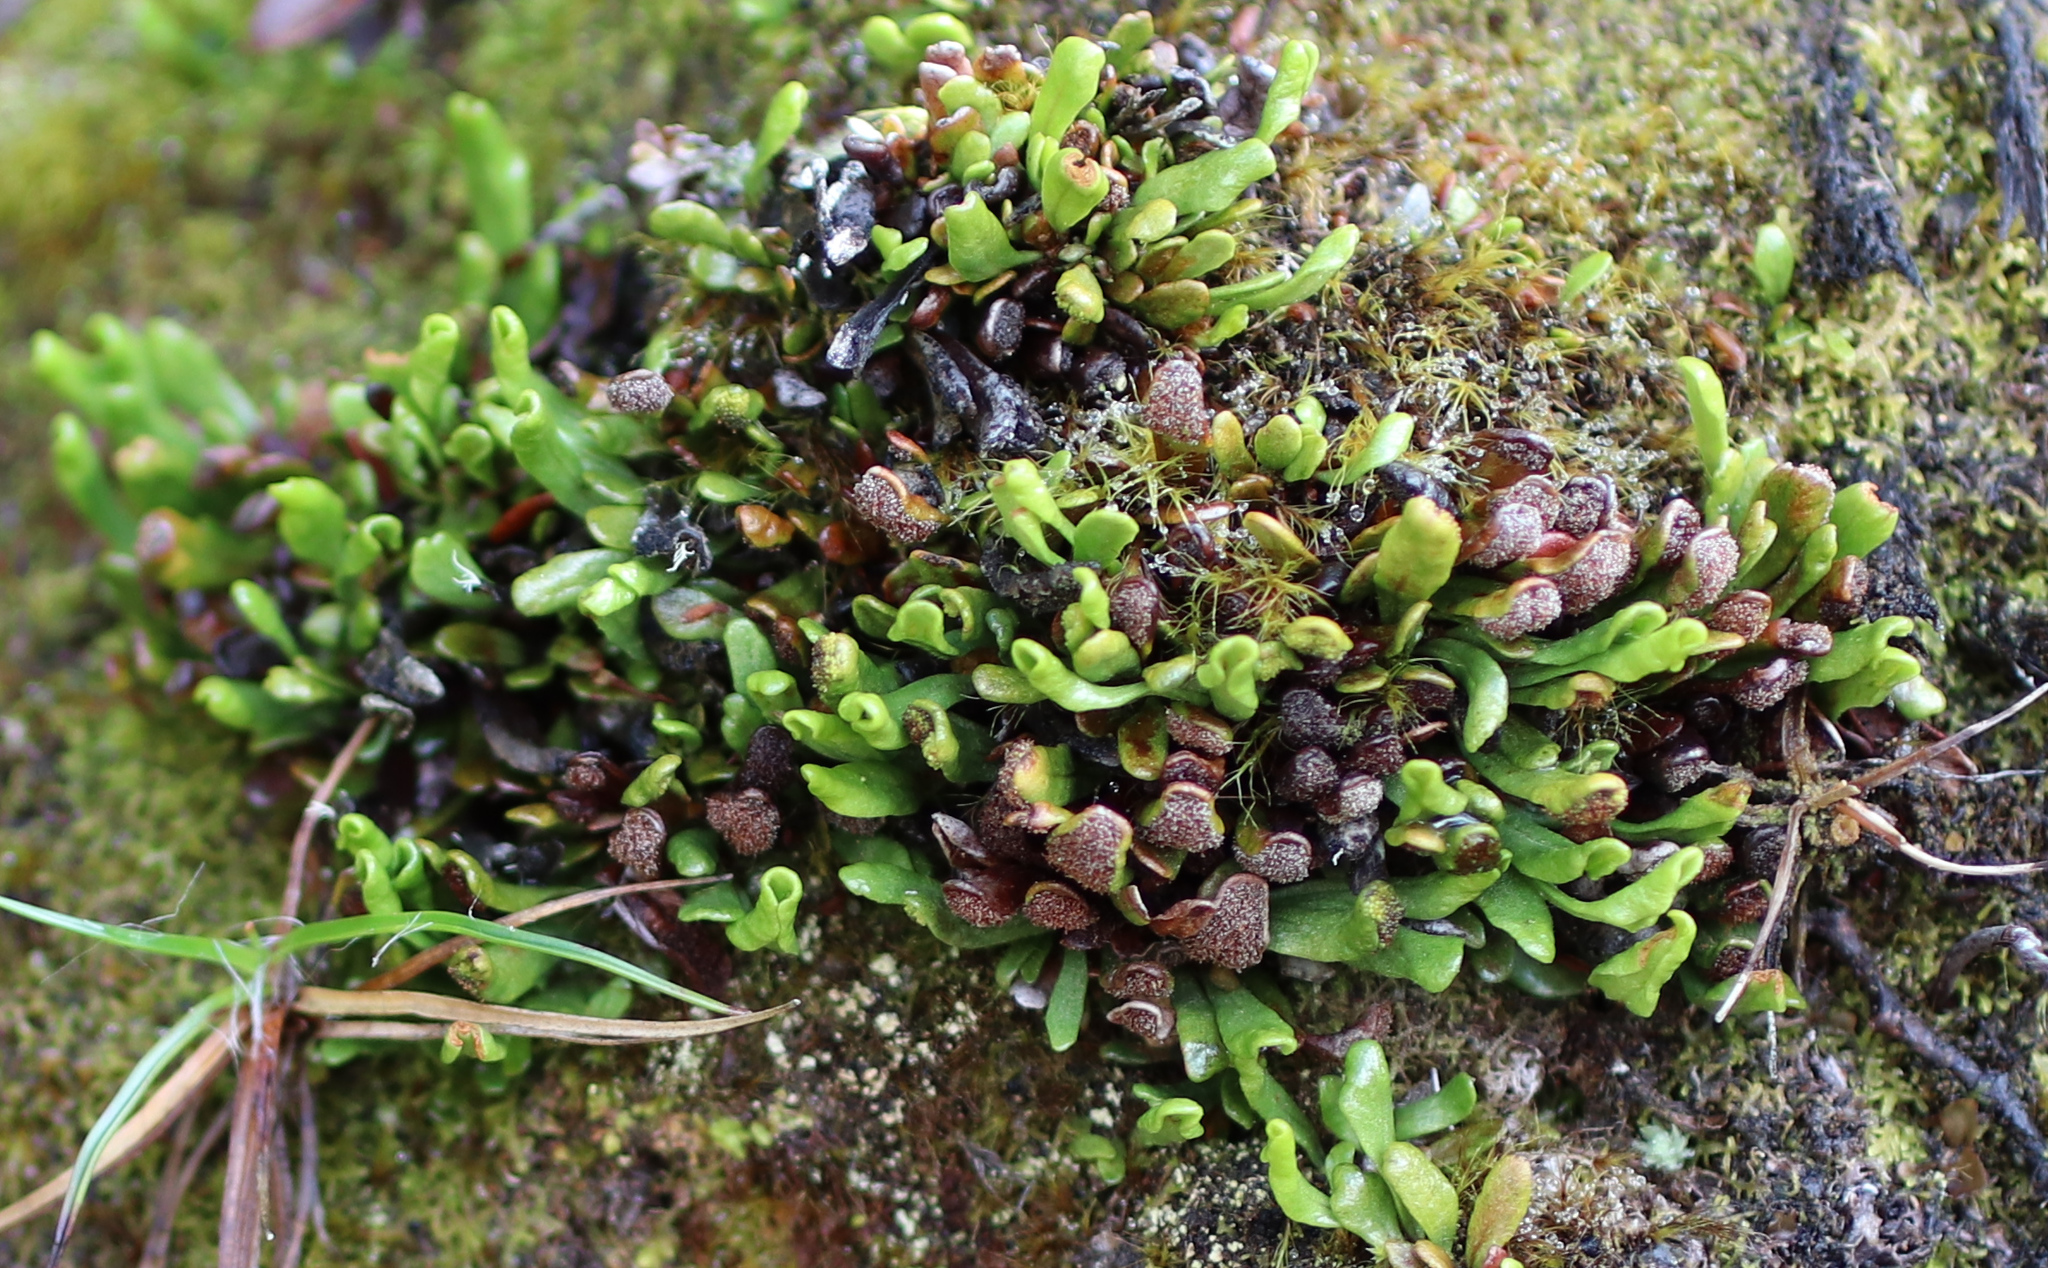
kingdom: Plantae
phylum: Tracheophyta
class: Polypodiopsida
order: Polypodiales
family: Polypodiaceae
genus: Notogrammitis
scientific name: Notogrammitis crassior
